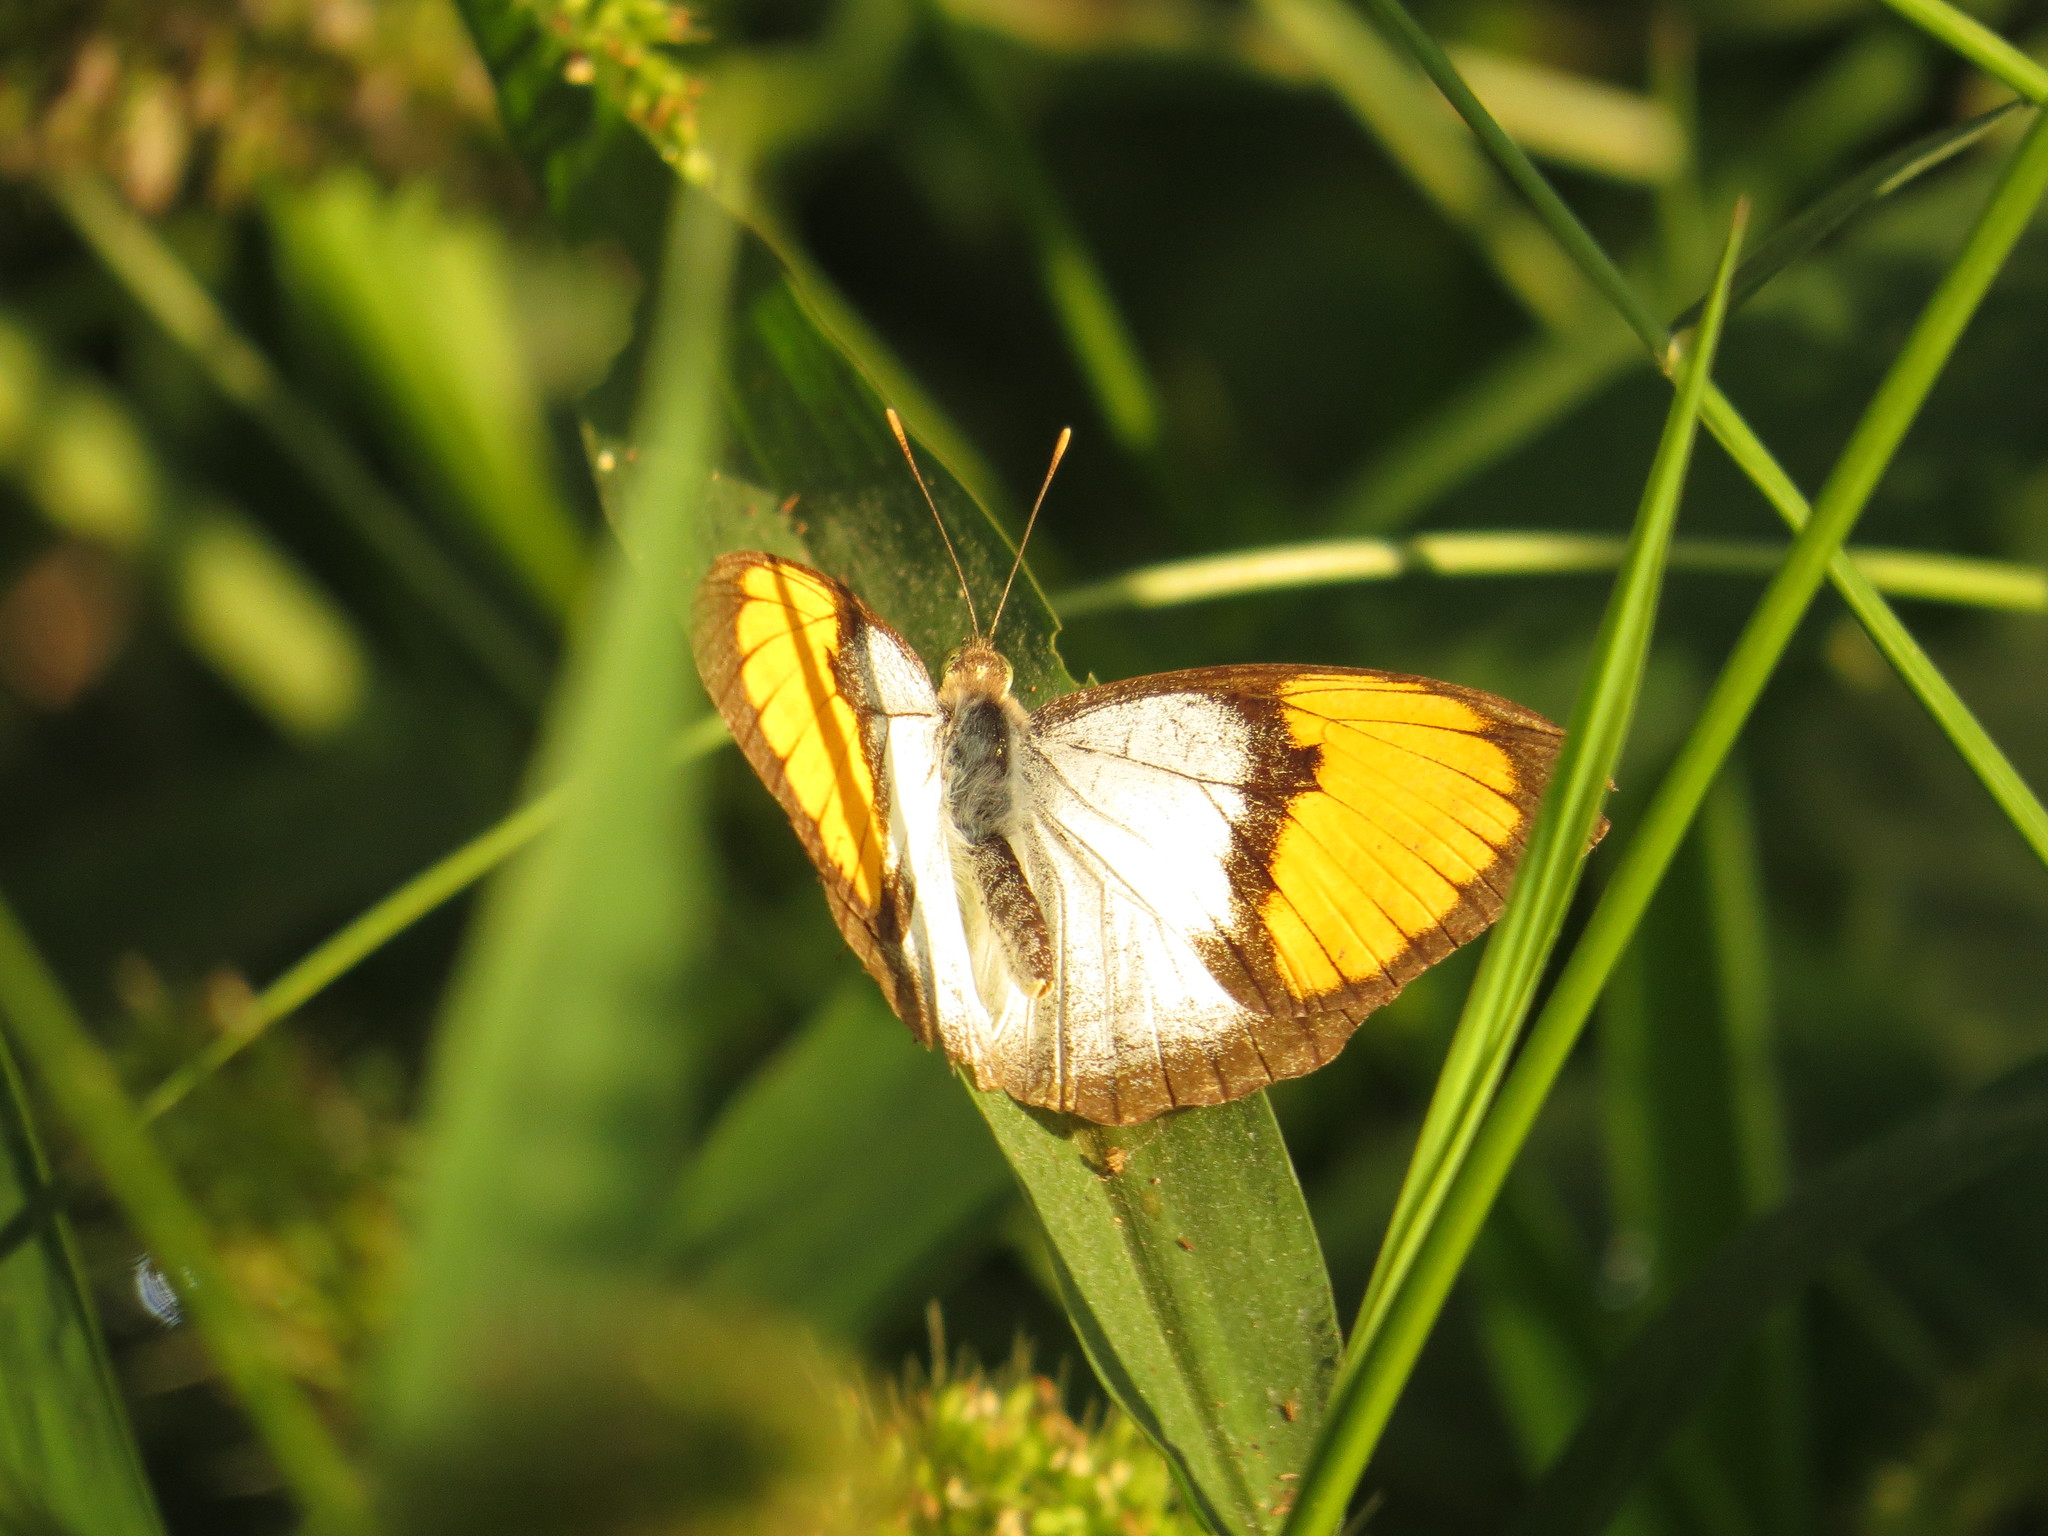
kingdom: Animalia
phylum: Arthropoda
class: Insecta
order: Lepidoptera
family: Pieridae
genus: Ixias
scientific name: Ixias marianne
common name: White orange tip
